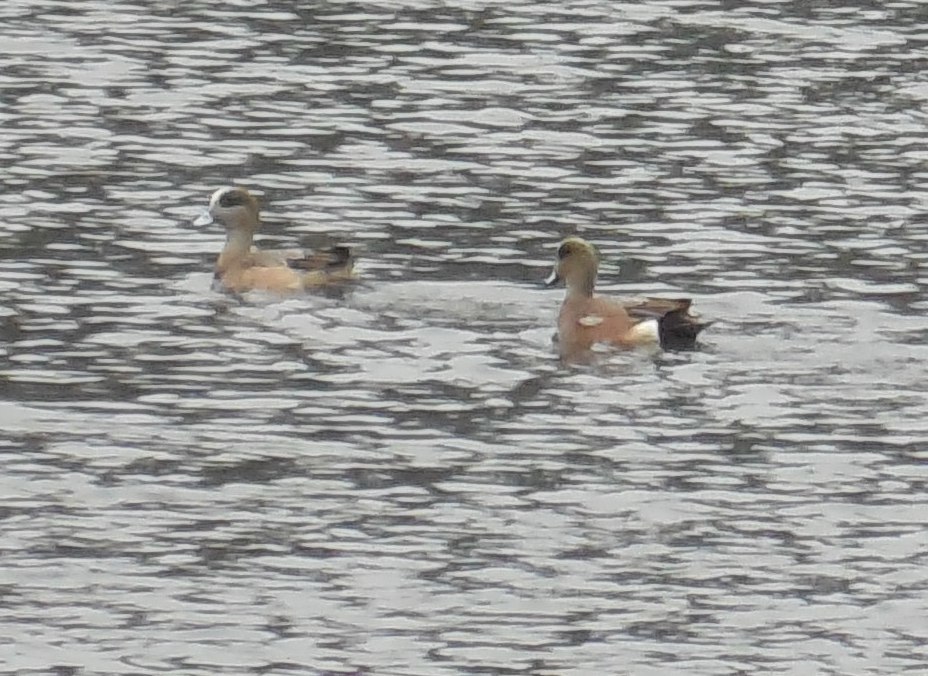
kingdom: Animalia
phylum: Chordata
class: Aves
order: Anseriformes
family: Anatidae
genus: Mareca
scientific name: Mareca americana
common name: American wigeon
